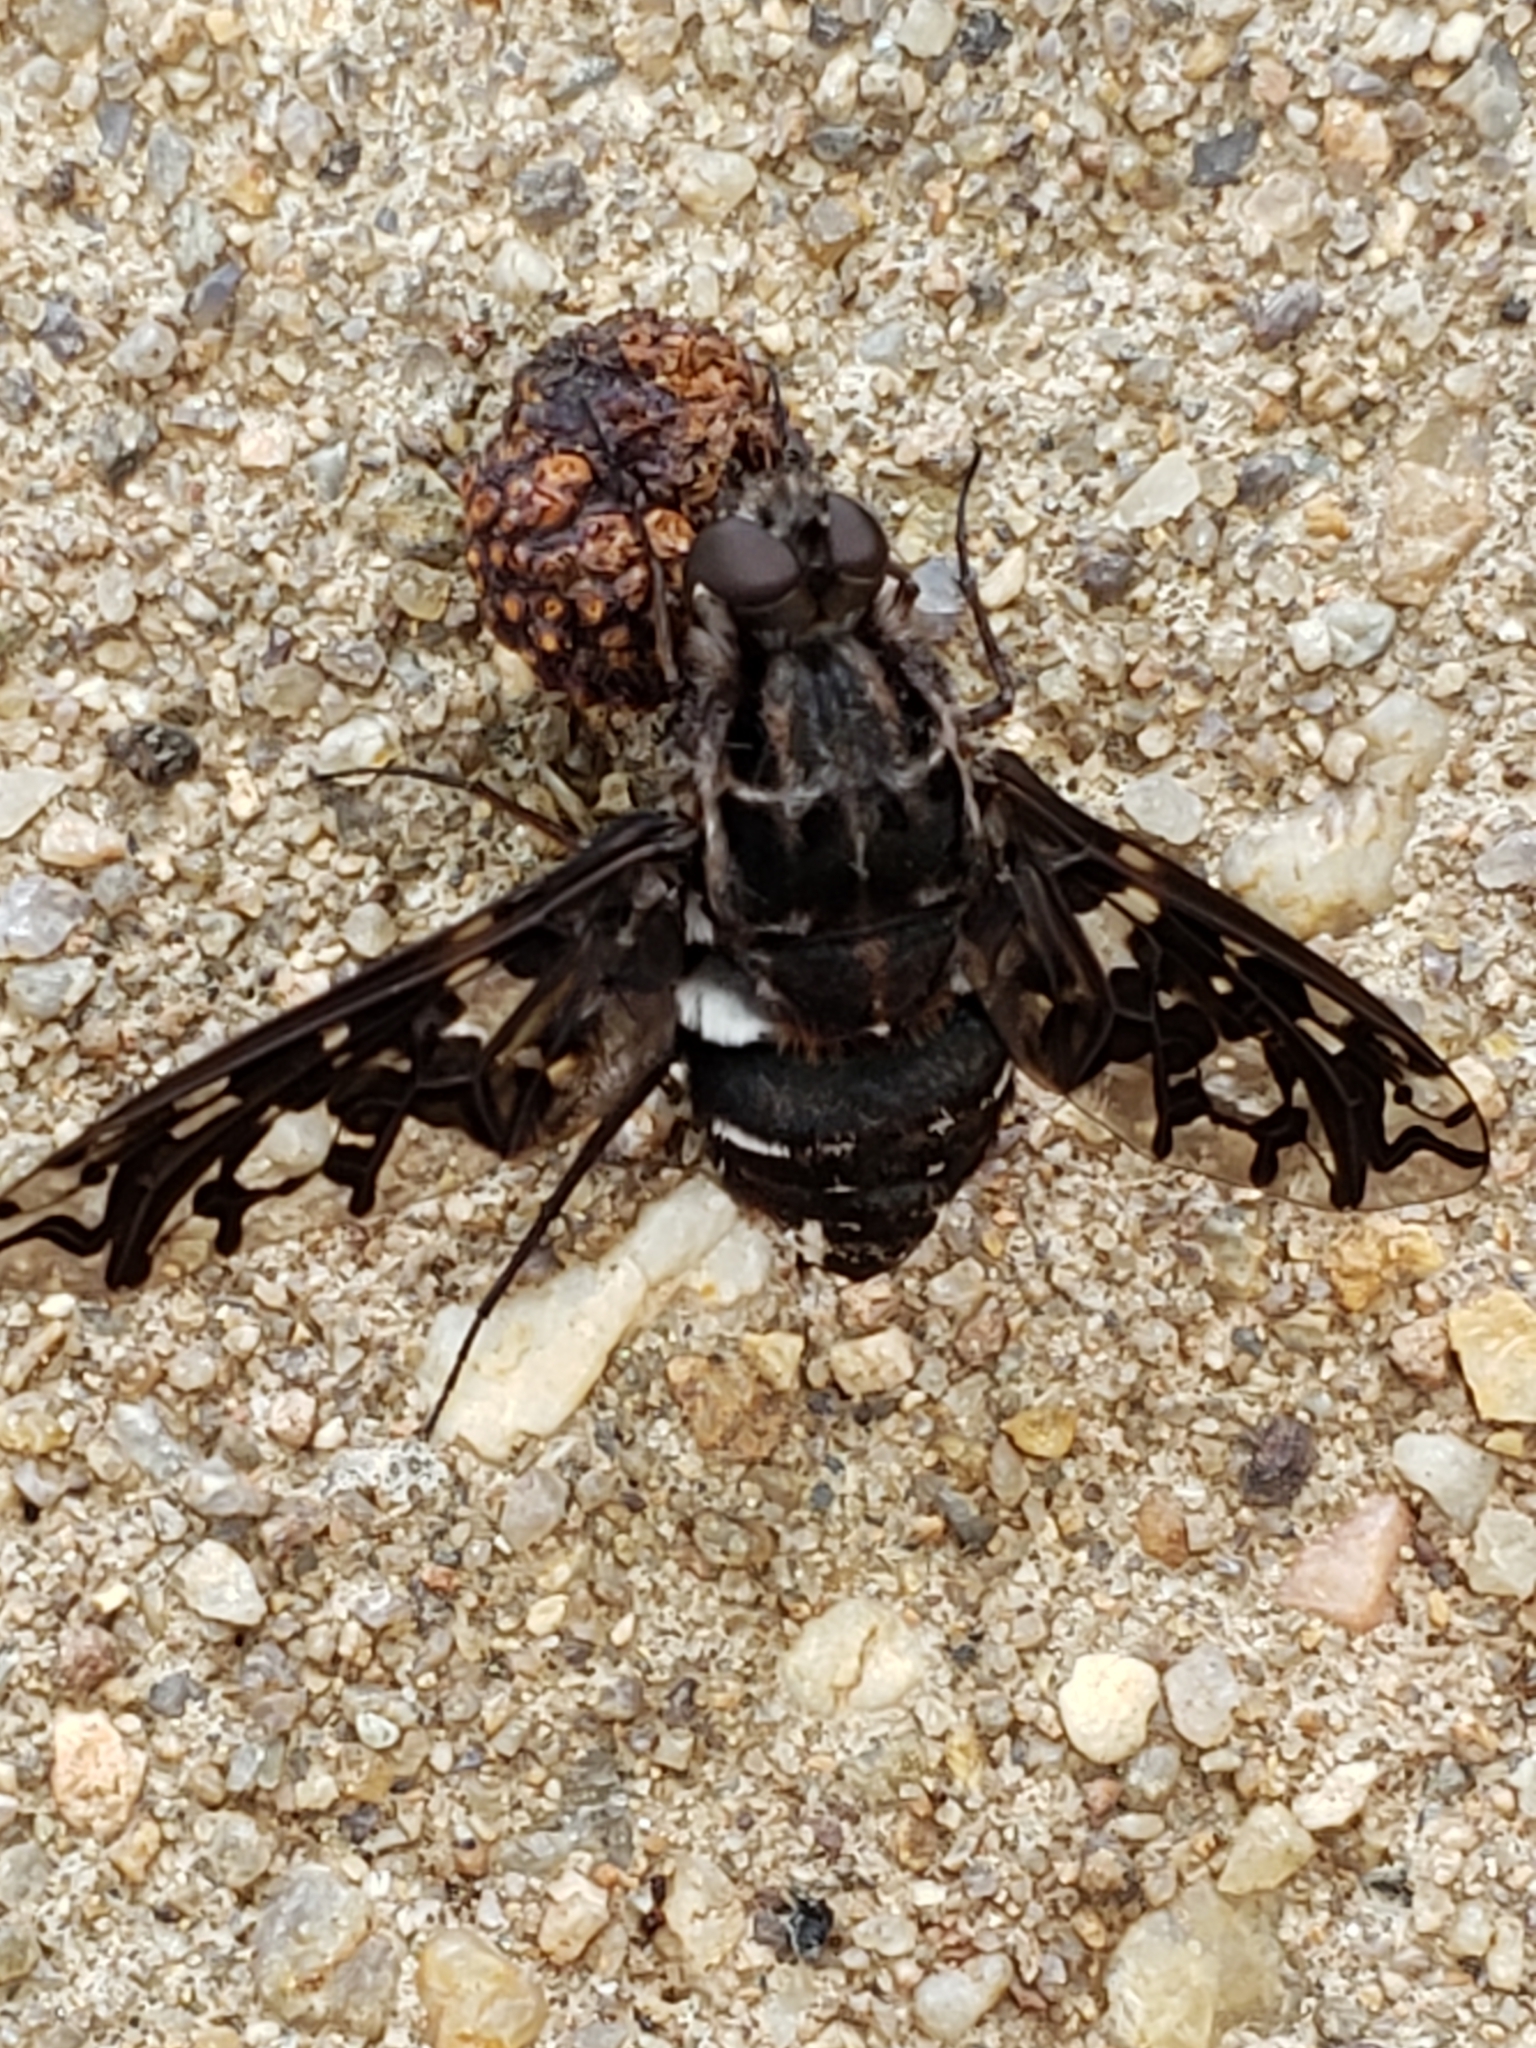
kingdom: Animalia
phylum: Arthropoda
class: Insecta
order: Diptera
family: Bombyliidae
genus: Xenox
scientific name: Xenox tigrinus
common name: Tiger bee fly
